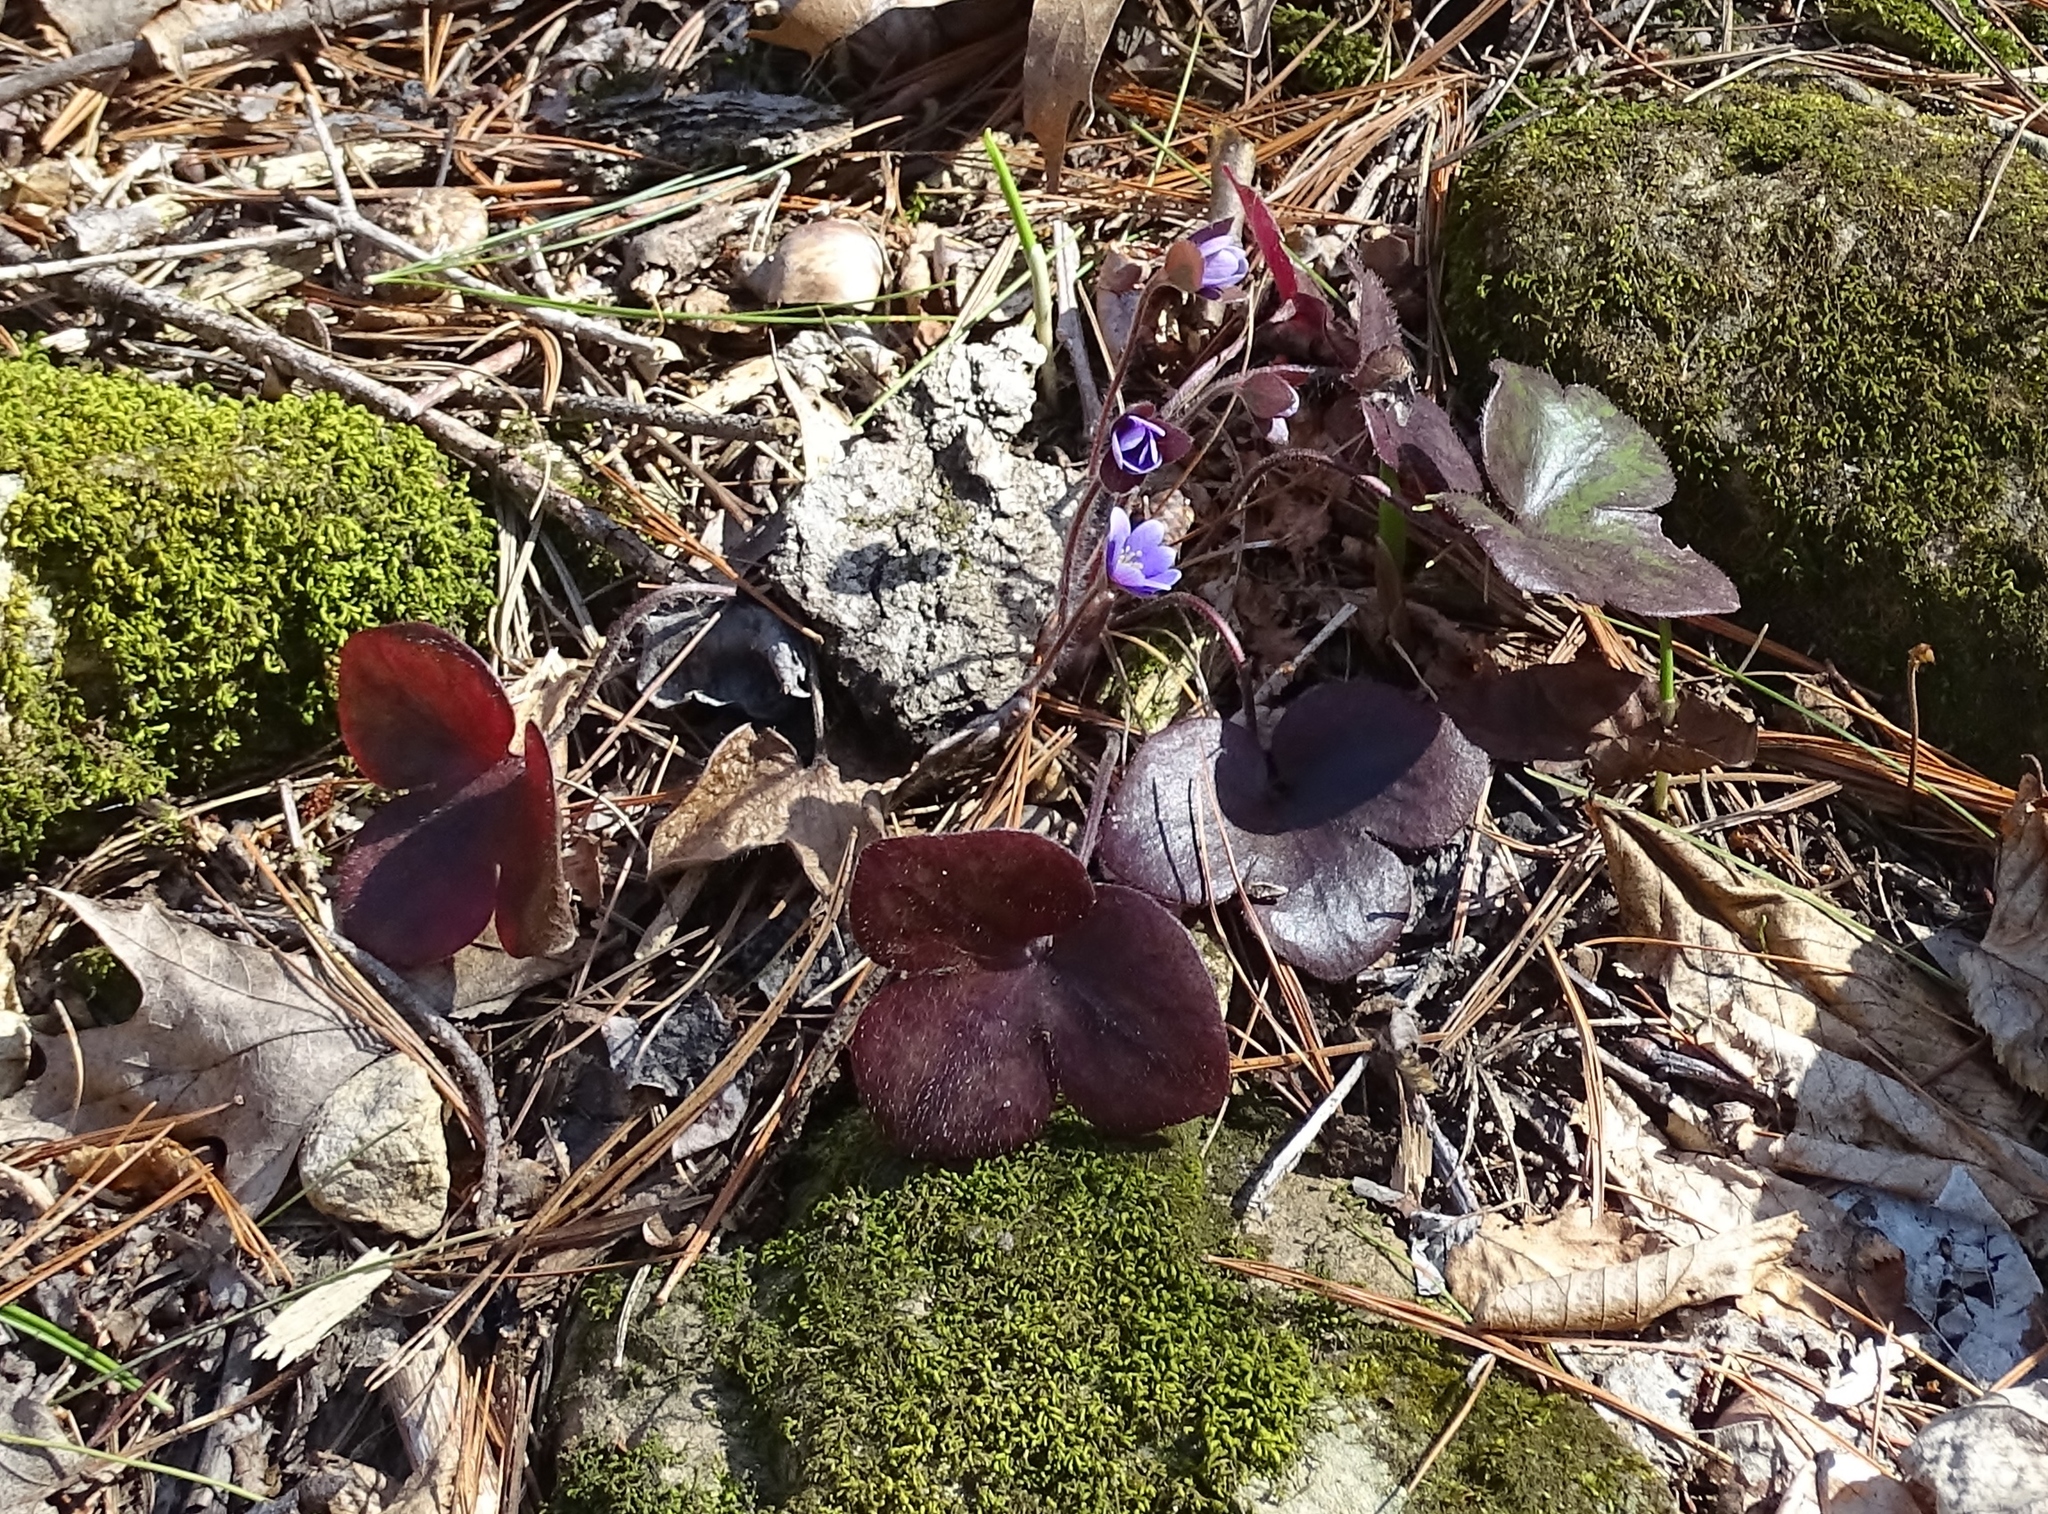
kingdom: Plantae
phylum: Tracheophyta
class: Magnoliopsida
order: Ranunculales
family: Ranunculaceae
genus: Hepatica
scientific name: Hepatica americana
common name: American hepatica
